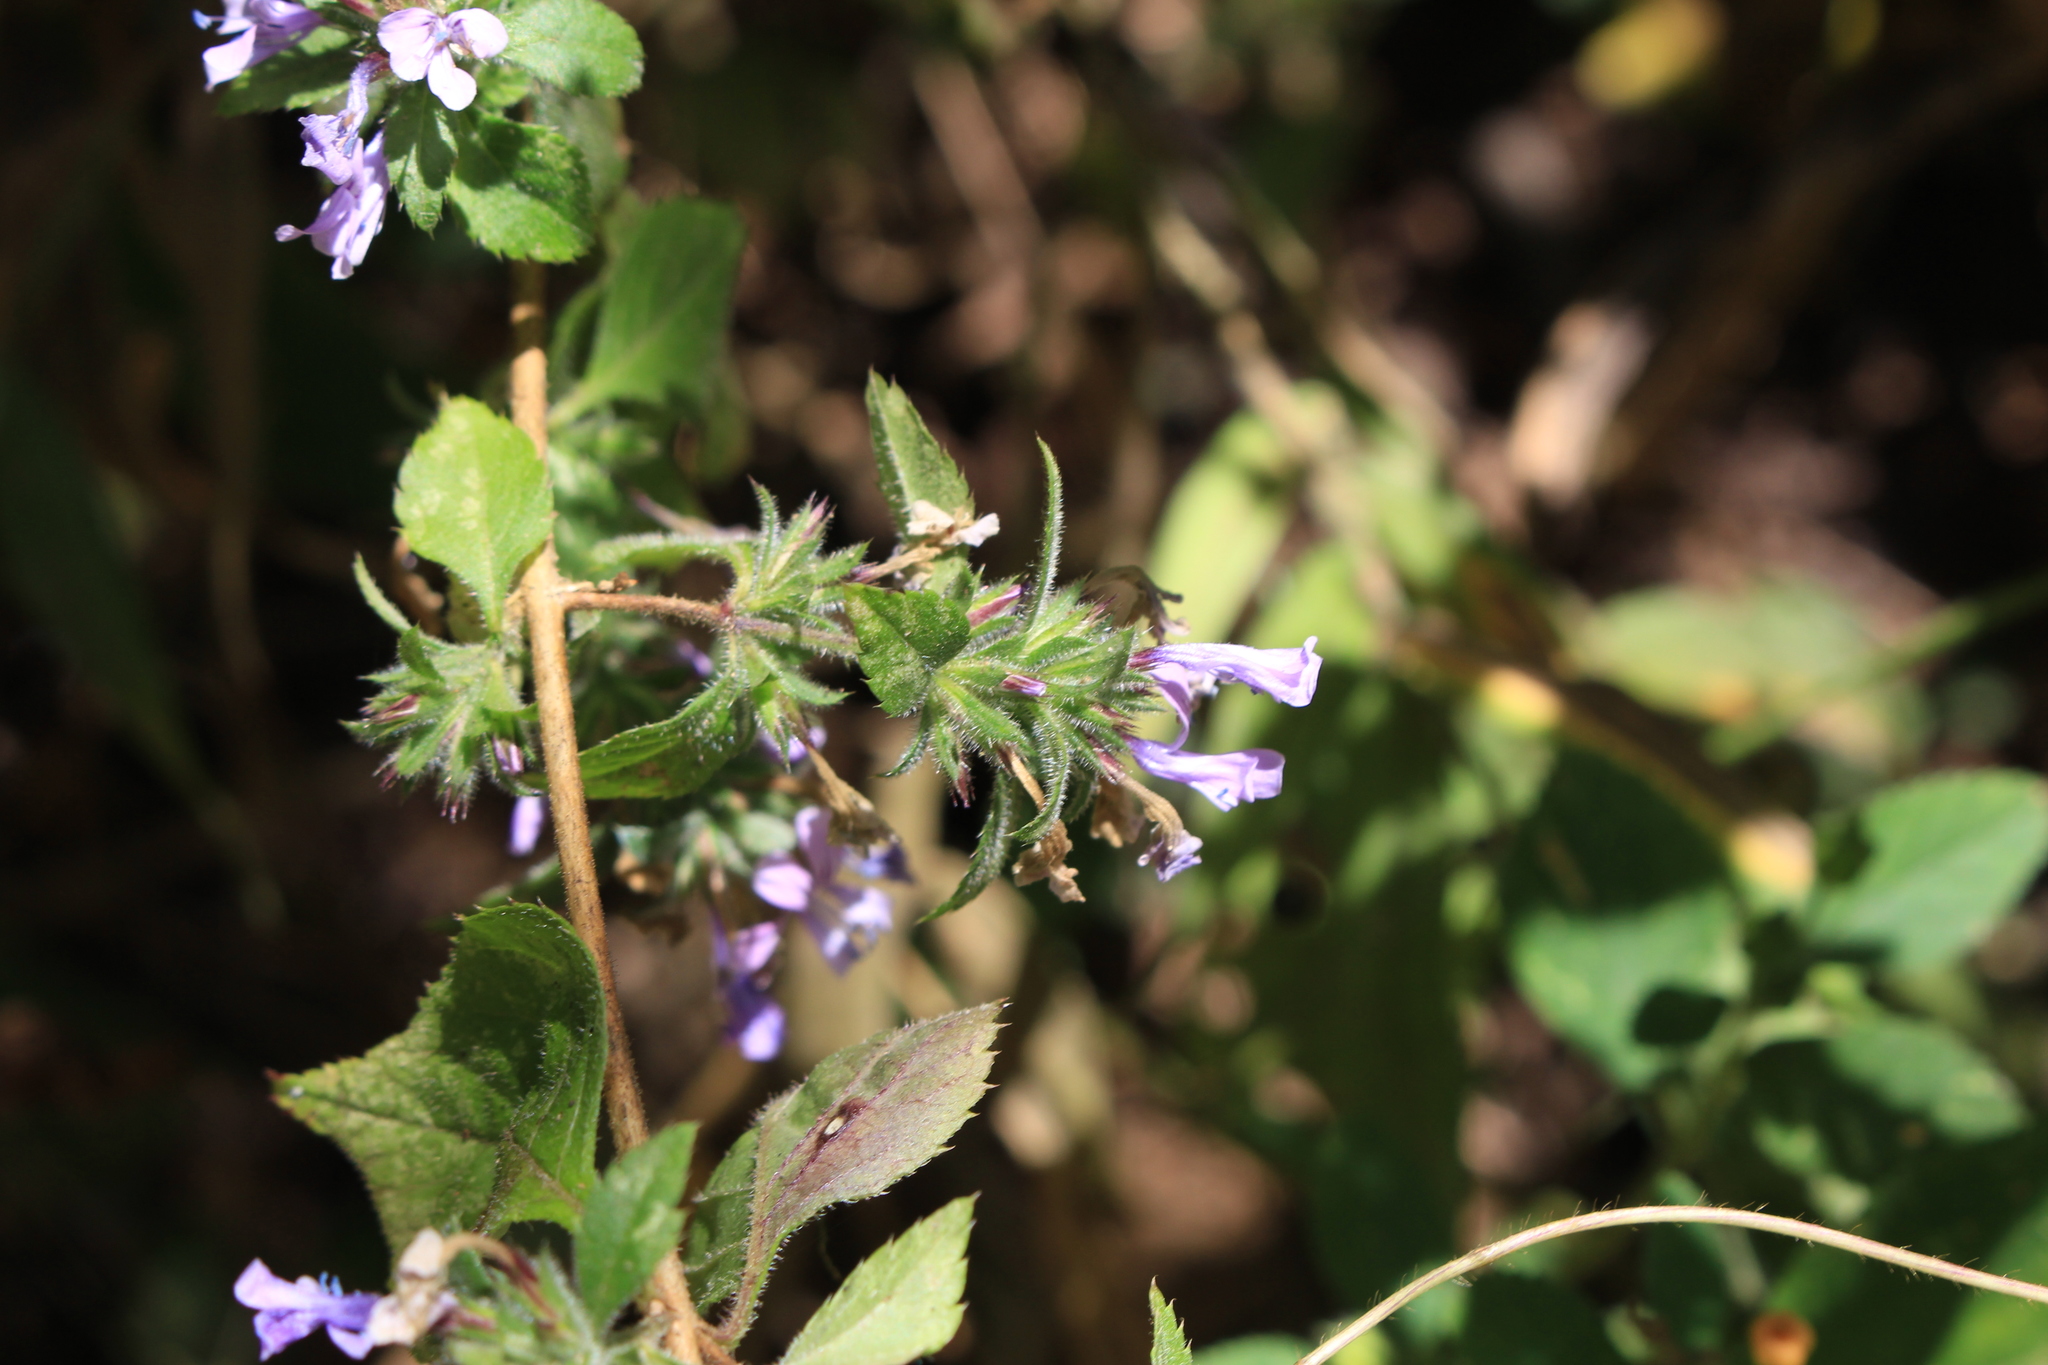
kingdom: Plantae
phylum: Tracheophyta
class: Magnoliopsida
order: Ericales
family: Polemoniaceae
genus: Loeselia
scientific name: Loeselia glandulosa
